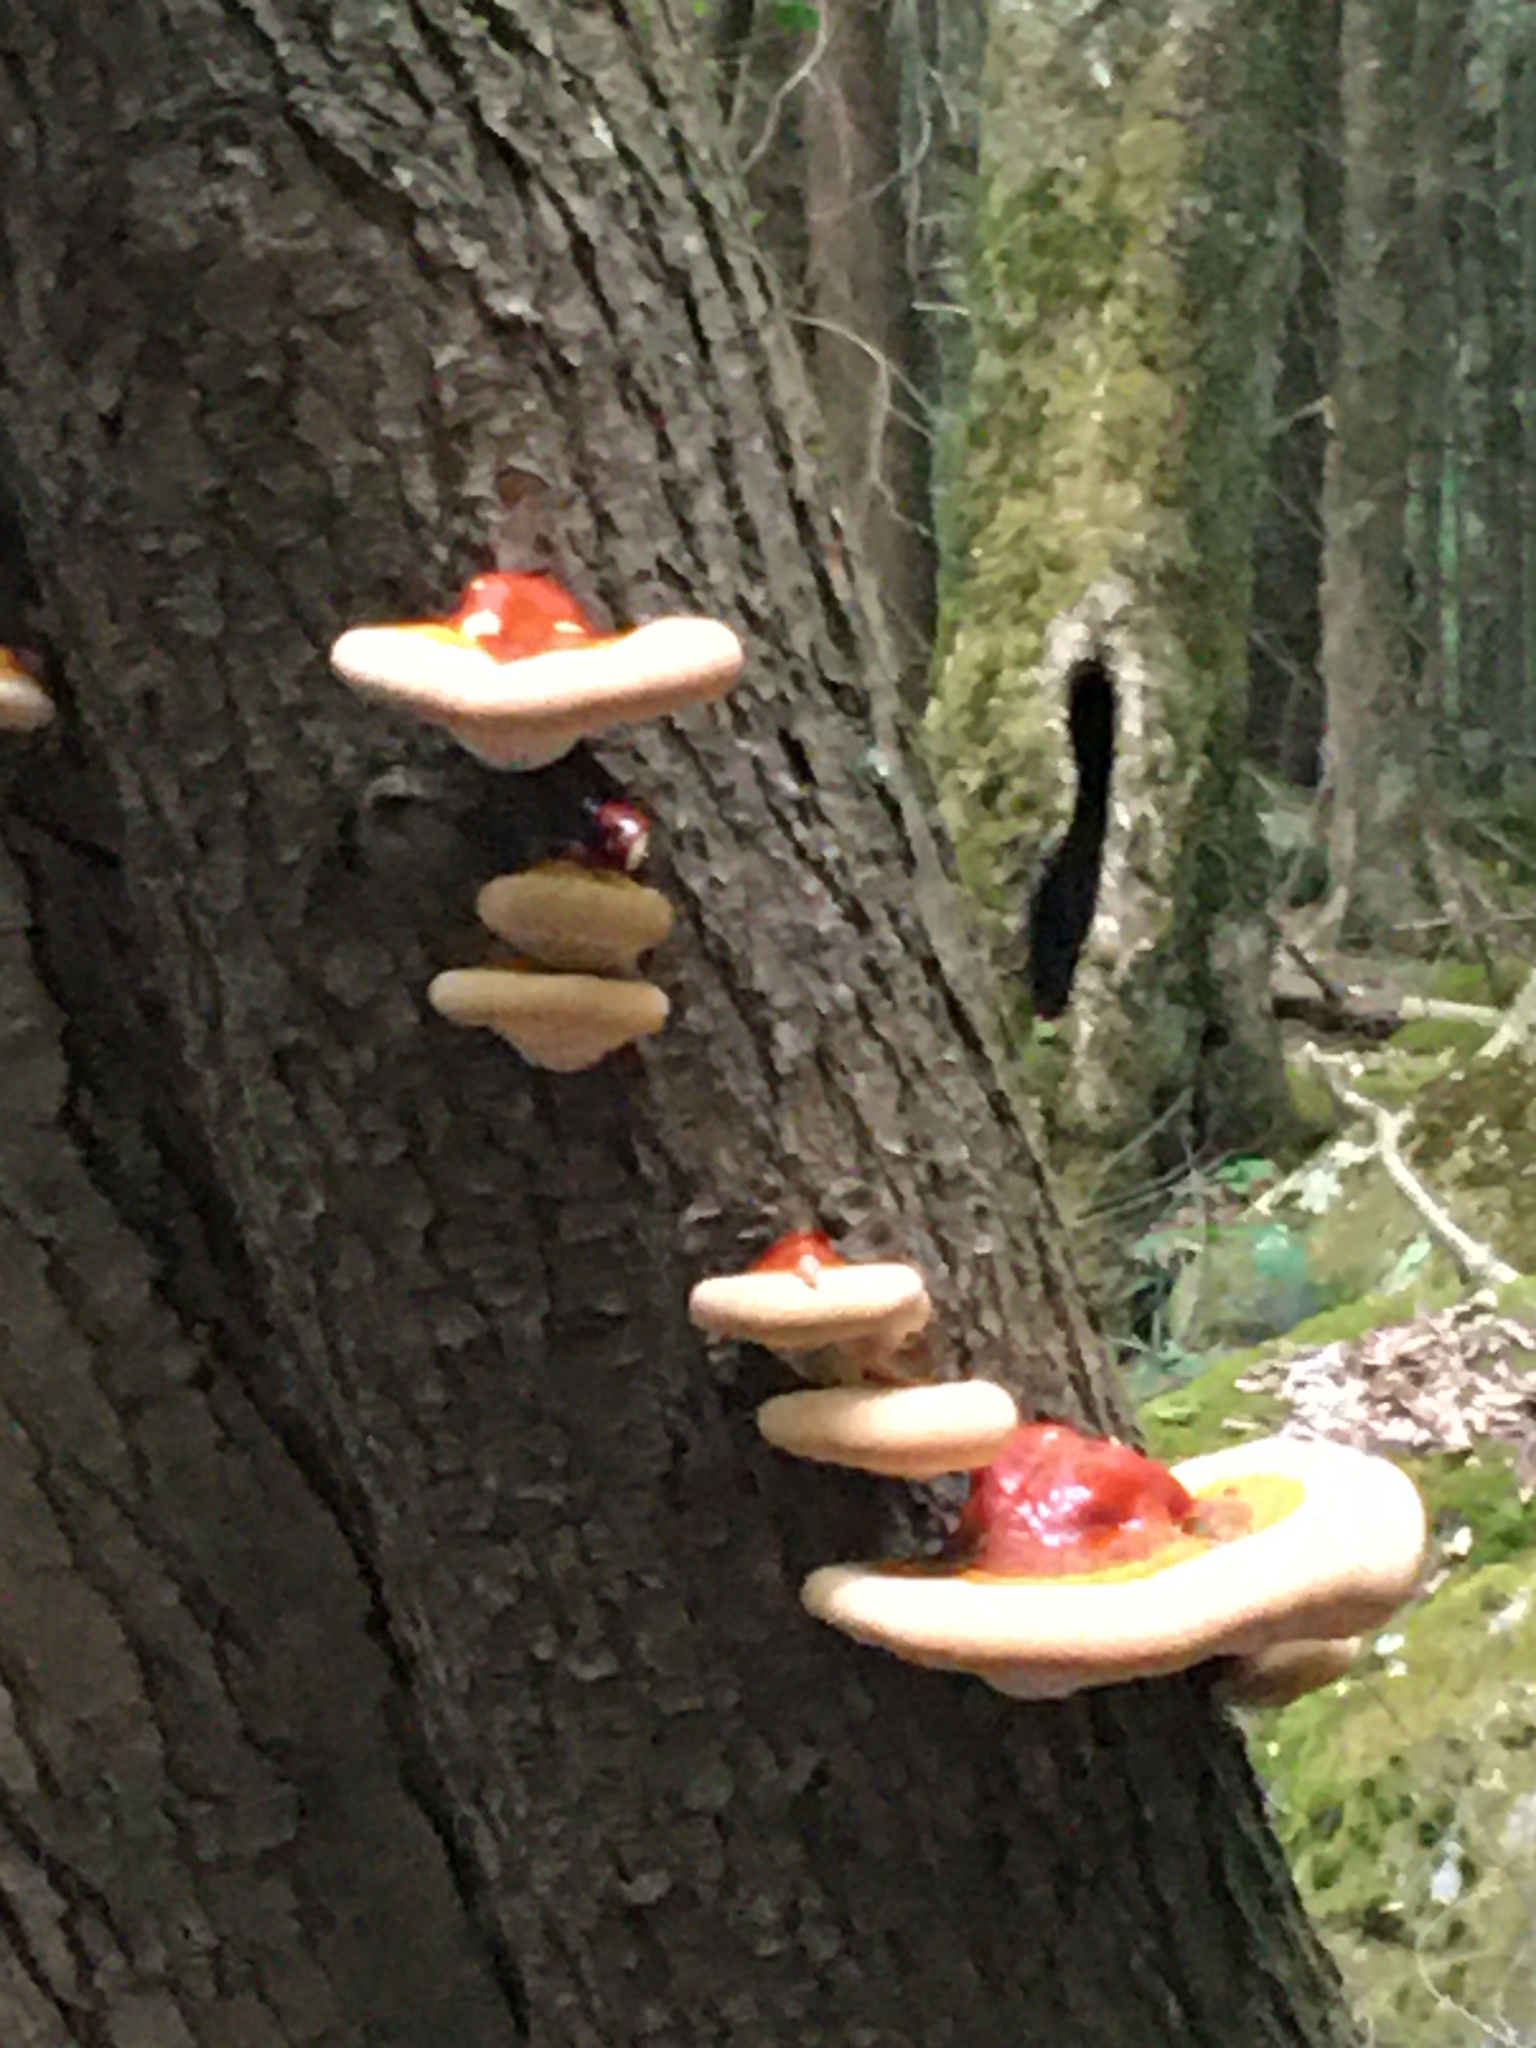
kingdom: Fungi
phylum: Basidiomycota
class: Agaricomycetes
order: Polyporales
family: Polyporaceae
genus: Ganoderma
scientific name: Ganoderma tsugae
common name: Hemlock varnish shelf
